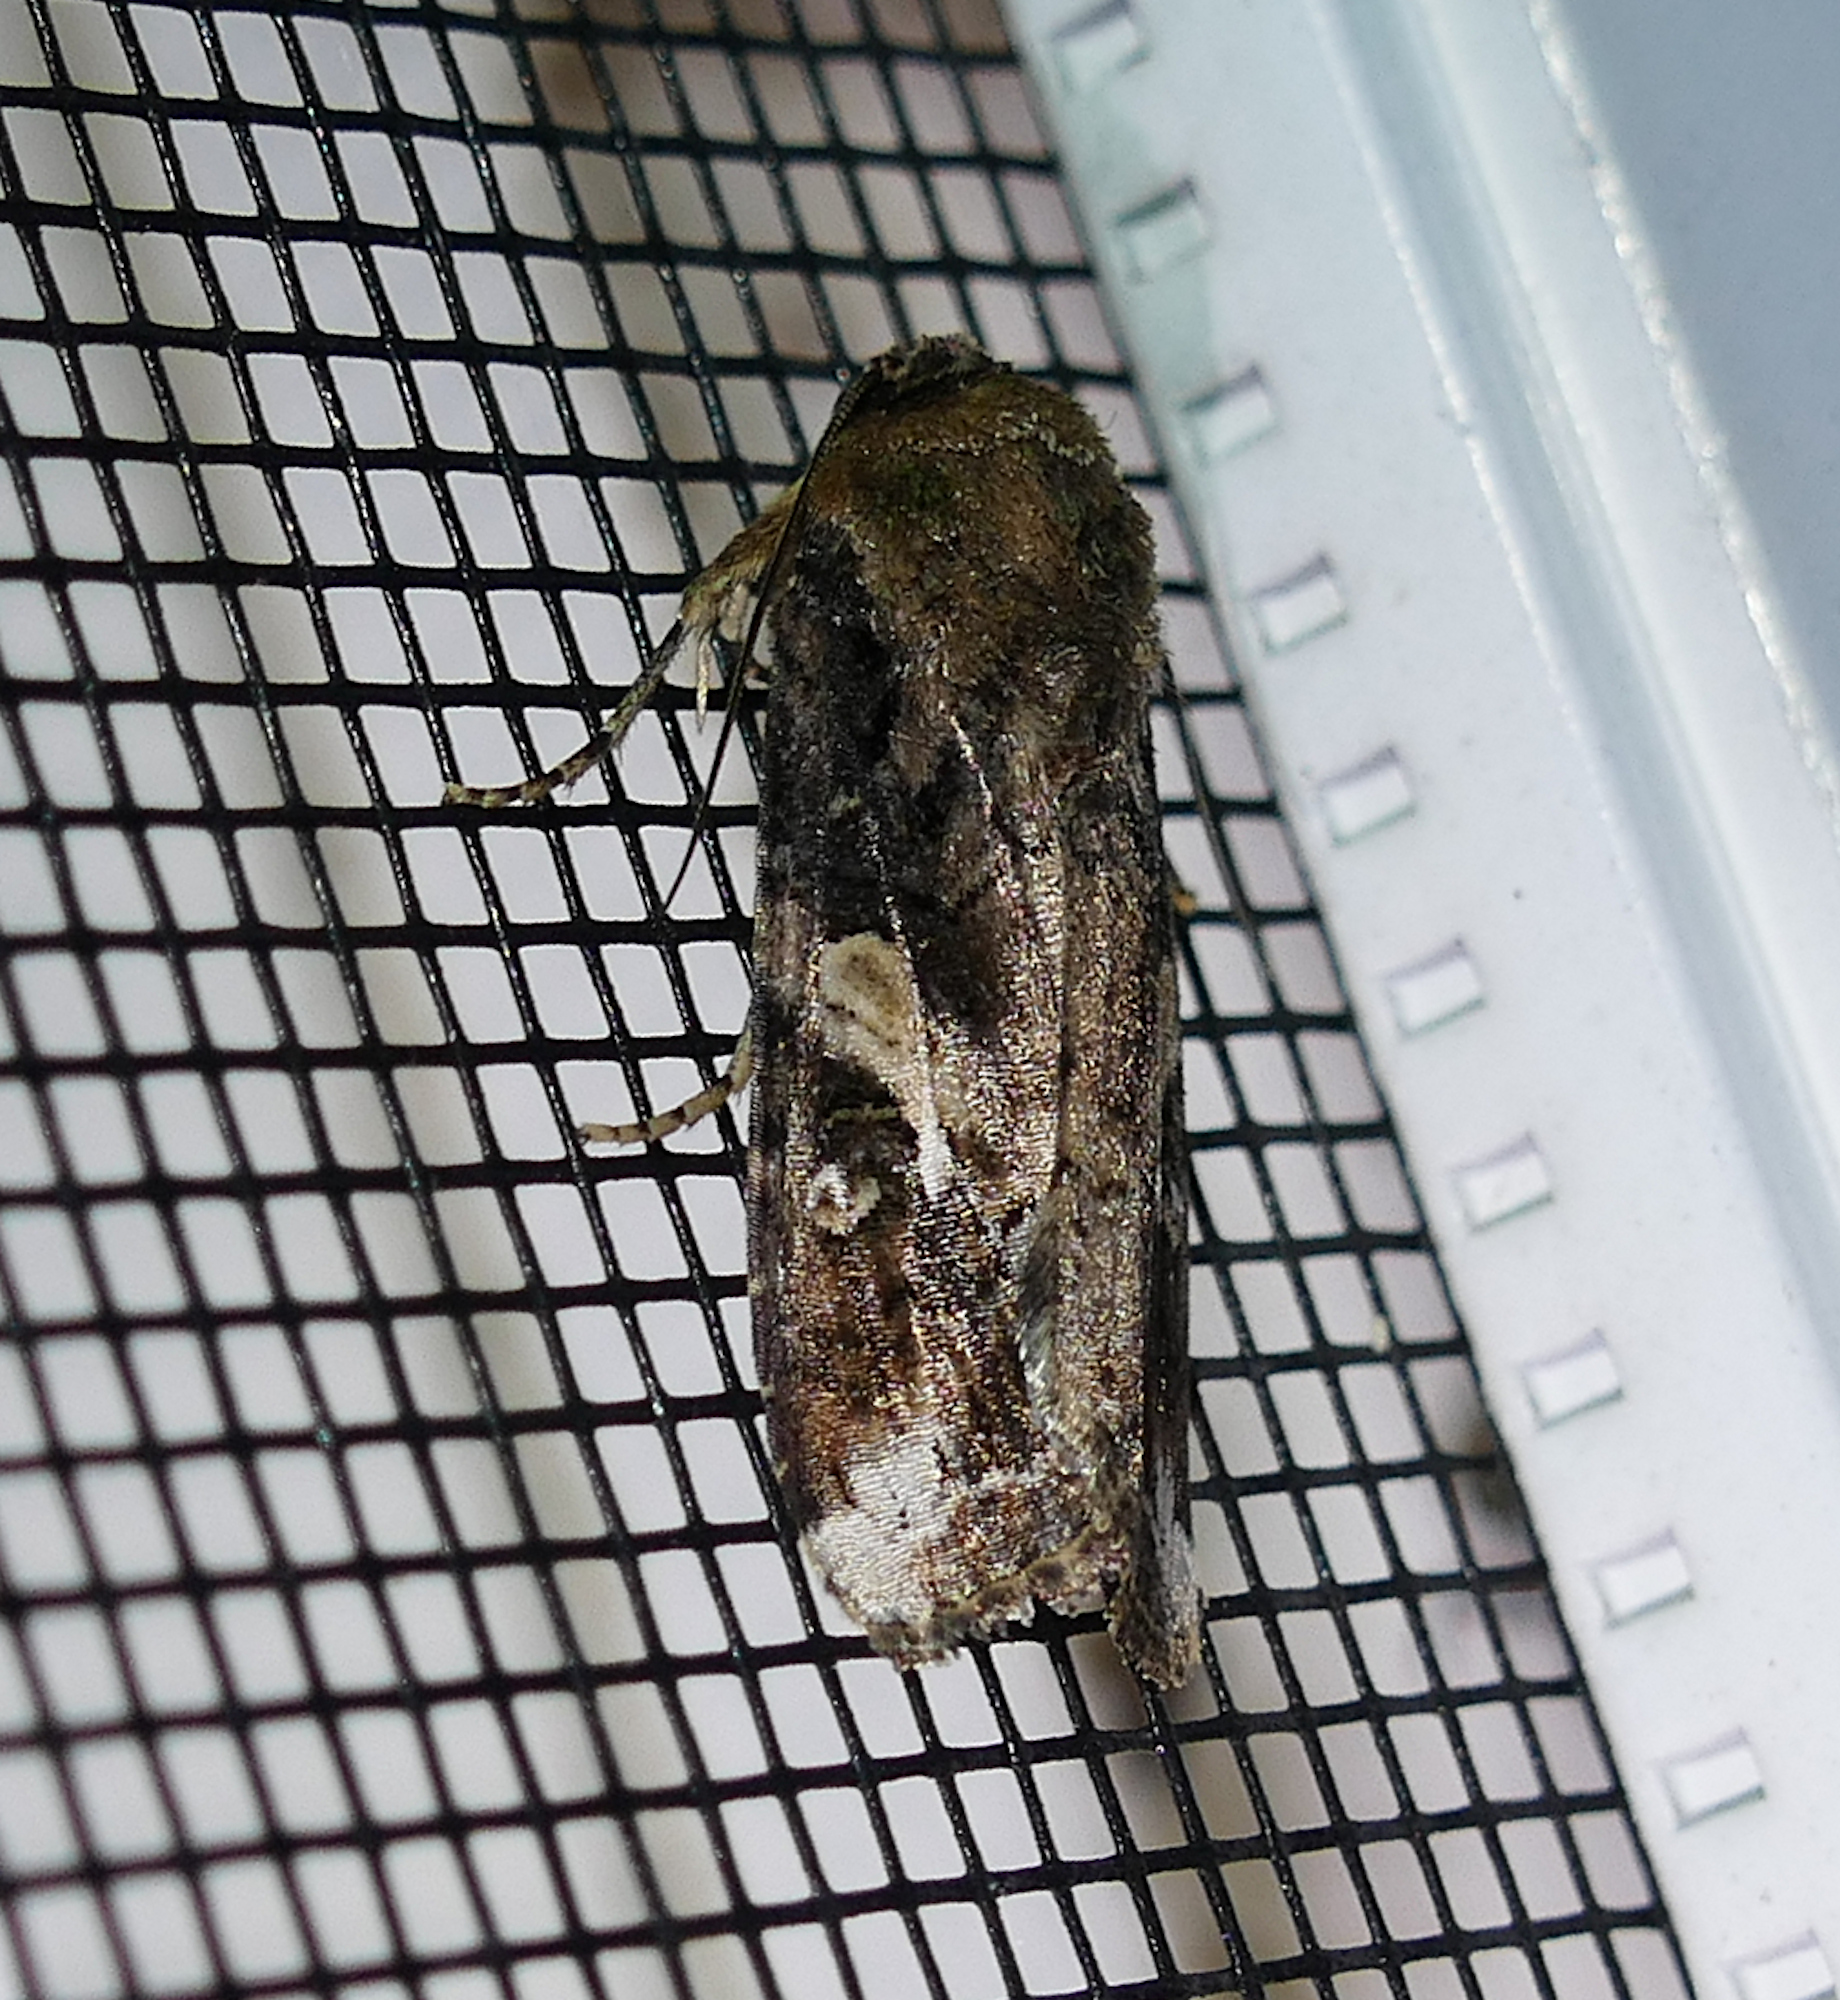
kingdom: Animalia
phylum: Arthropoda
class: Insecta
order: Lepidoptera
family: Noctuidae
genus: Spodoptera
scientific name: Spodoptera frugiperda
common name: Fall armyworm
